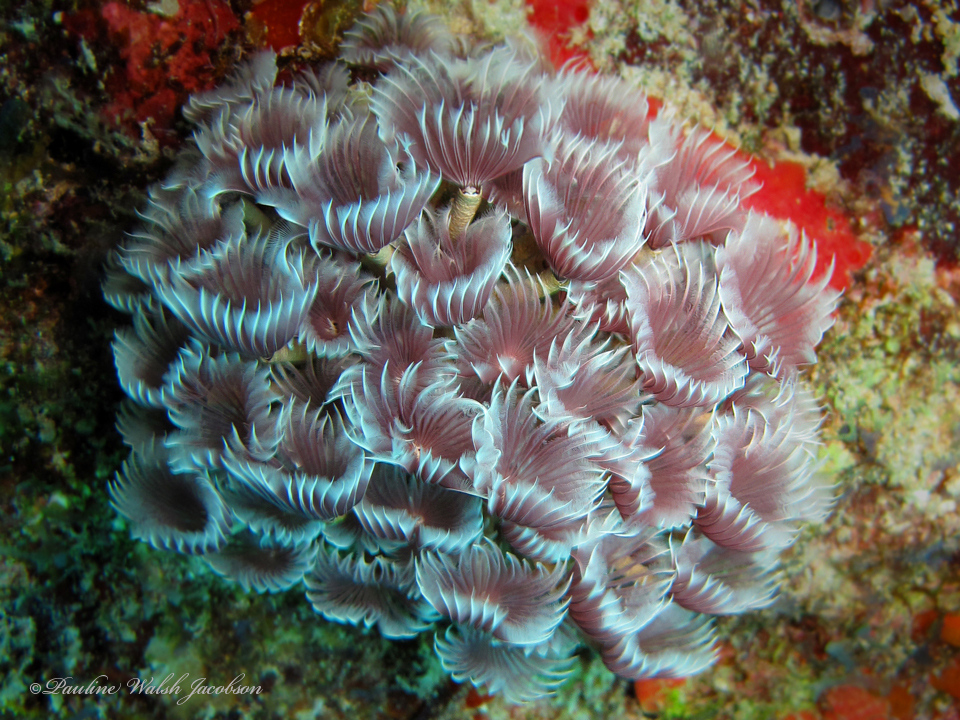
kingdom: Animalia
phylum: Annelida
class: Polychaeta
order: Sabellida
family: Sabellidae
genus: Bispira
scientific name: Bispira brunnea
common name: Social feather duster
